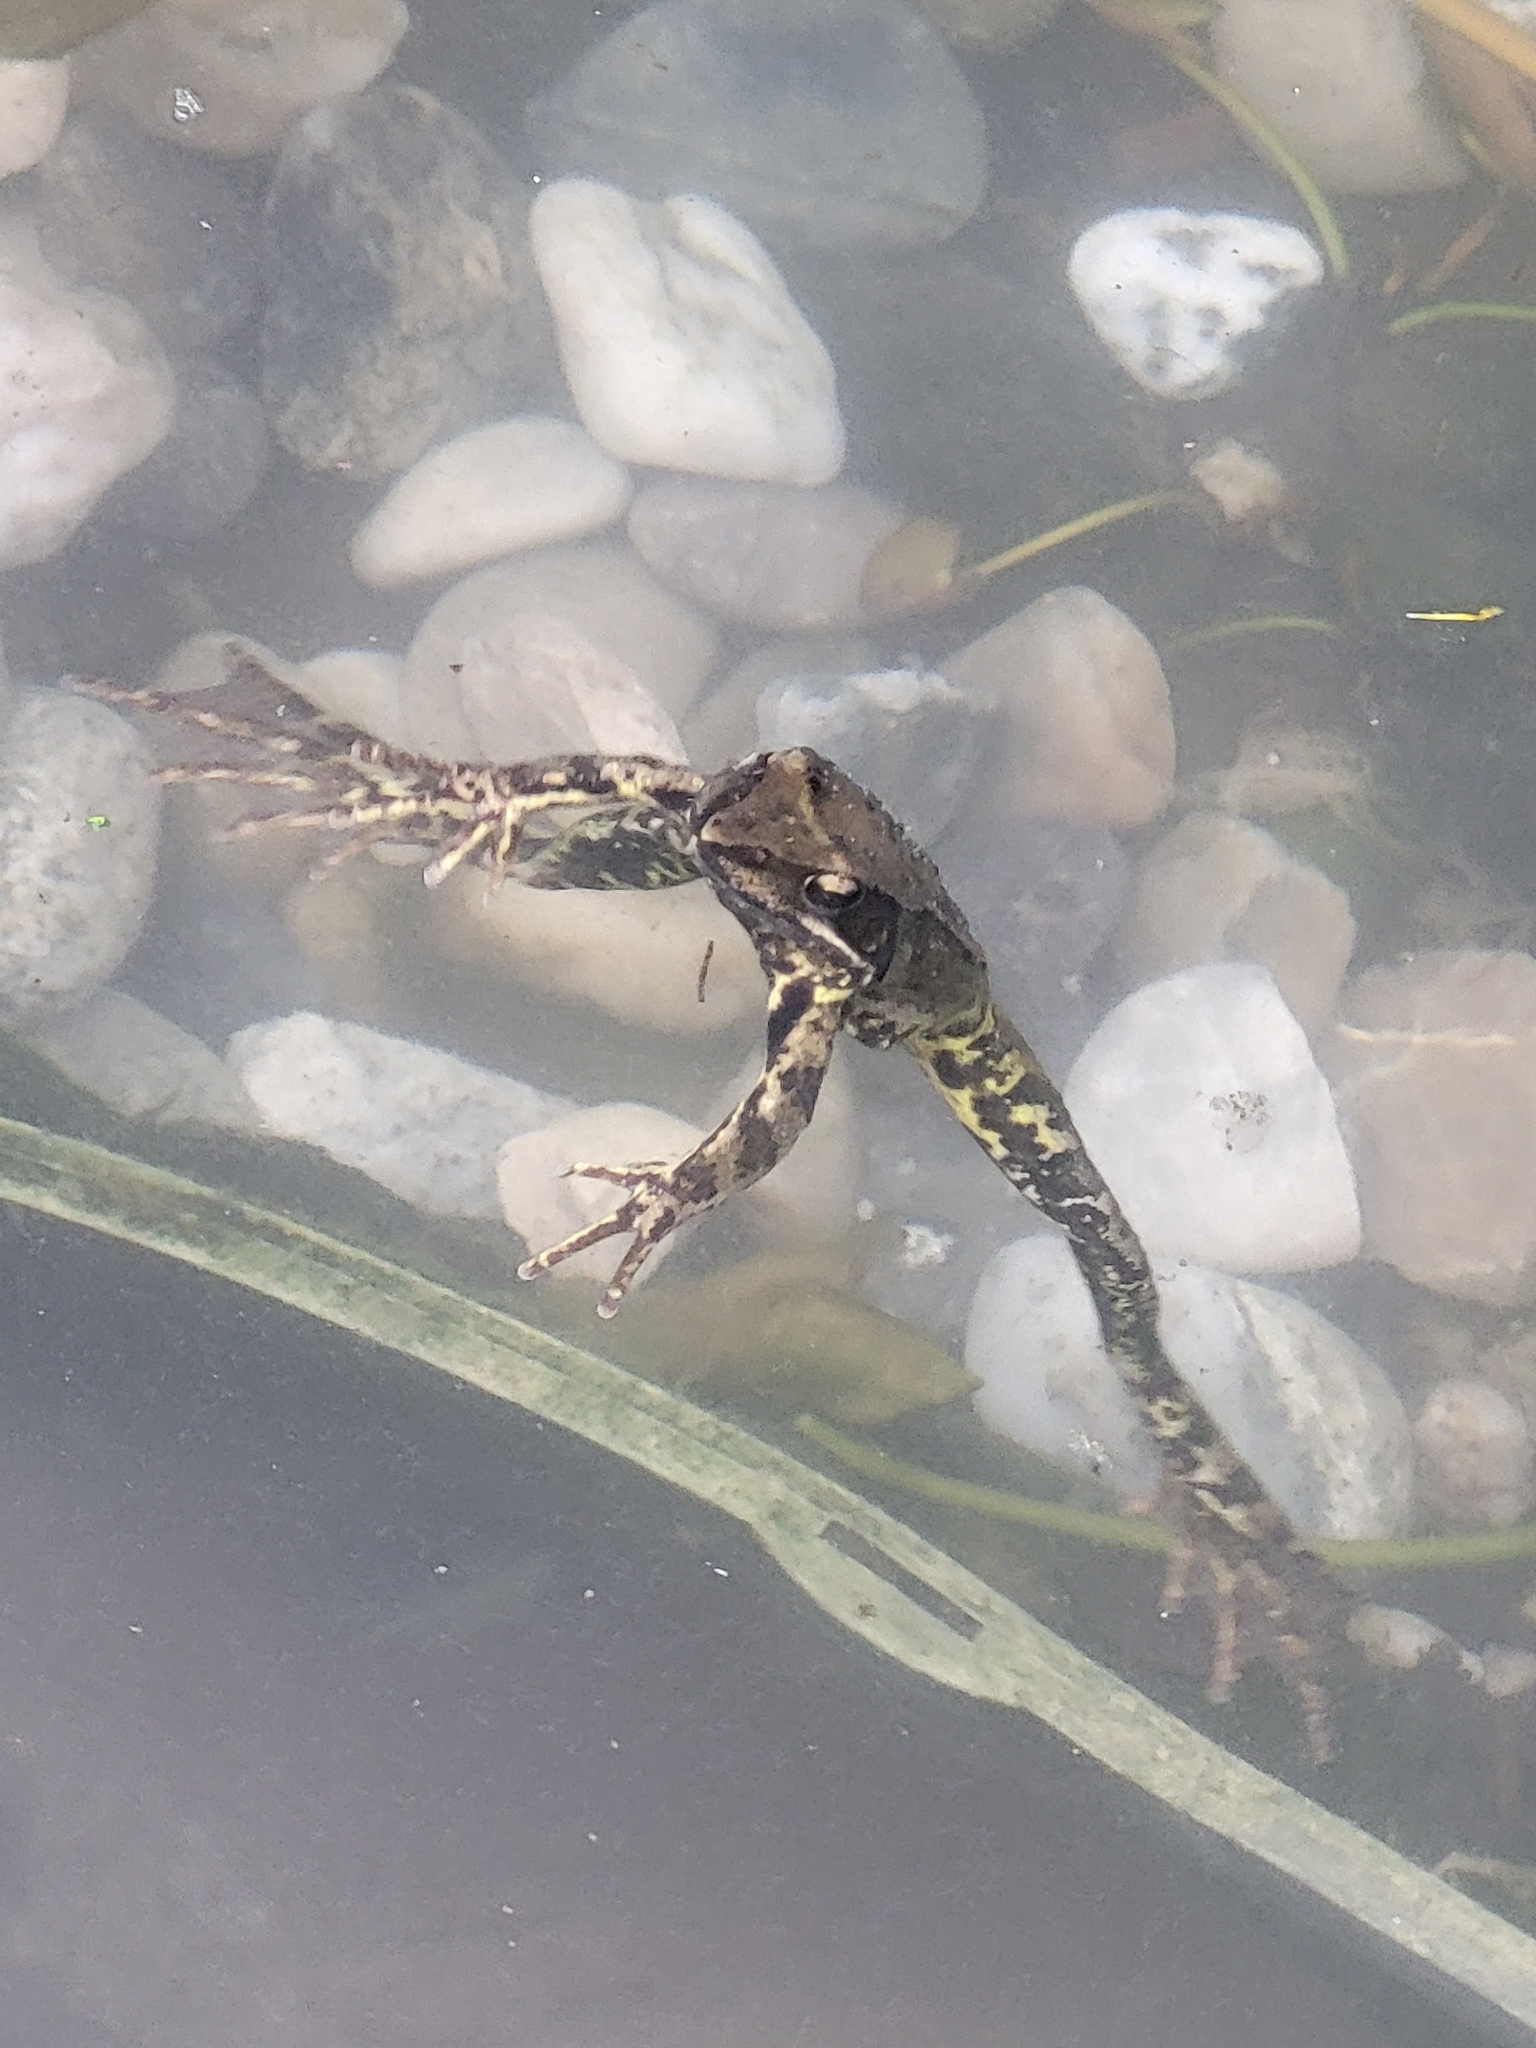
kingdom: Animalia
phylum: Chordata
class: Amphibia
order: Anura
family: Ranidae
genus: Rana
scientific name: Rana dalmatina
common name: Agile frog
